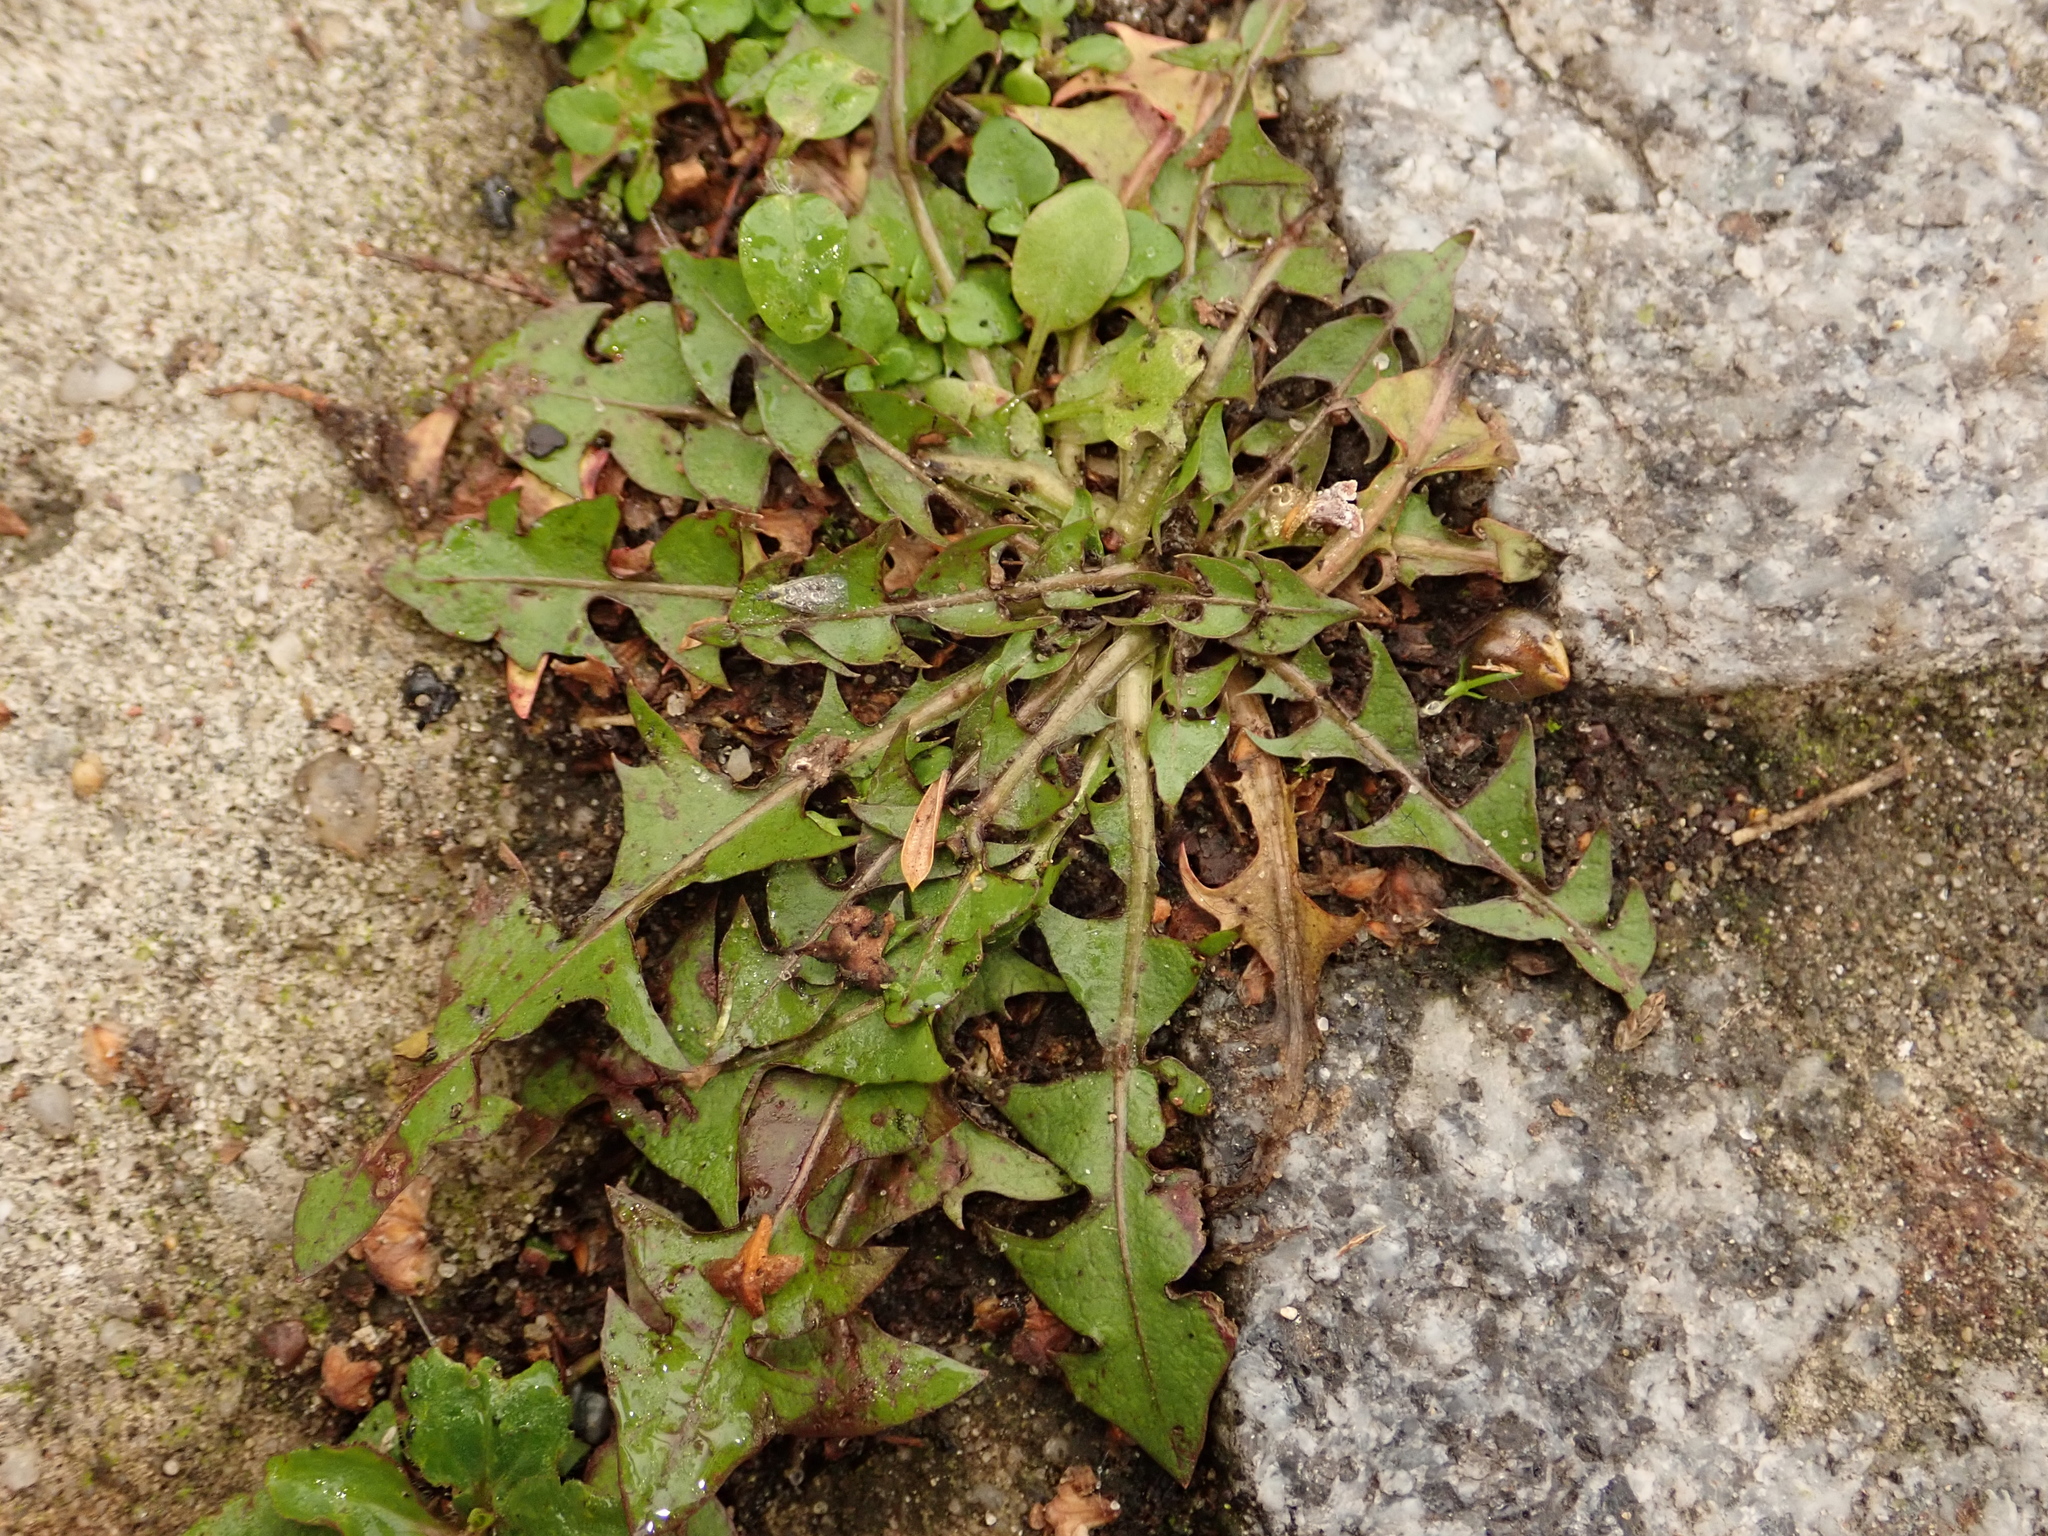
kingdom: Plantae
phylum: Tracheophyta
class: Magnoliopsida
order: Asterales
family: Asteraceae
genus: Taraxacum
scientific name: Taraxacum officinale
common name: Common dandelion
